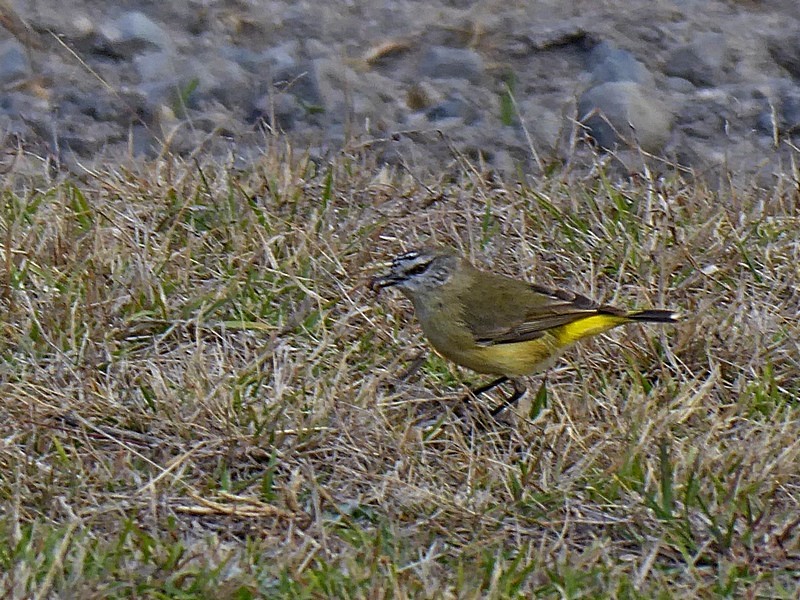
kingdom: Animalia
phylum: Chordata
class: Aves
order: Passeriformes
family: Acanthizidae
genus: Acanthiza
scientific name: Acanthiza chrysorrhoa
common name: Yellow-rumped thornbill
